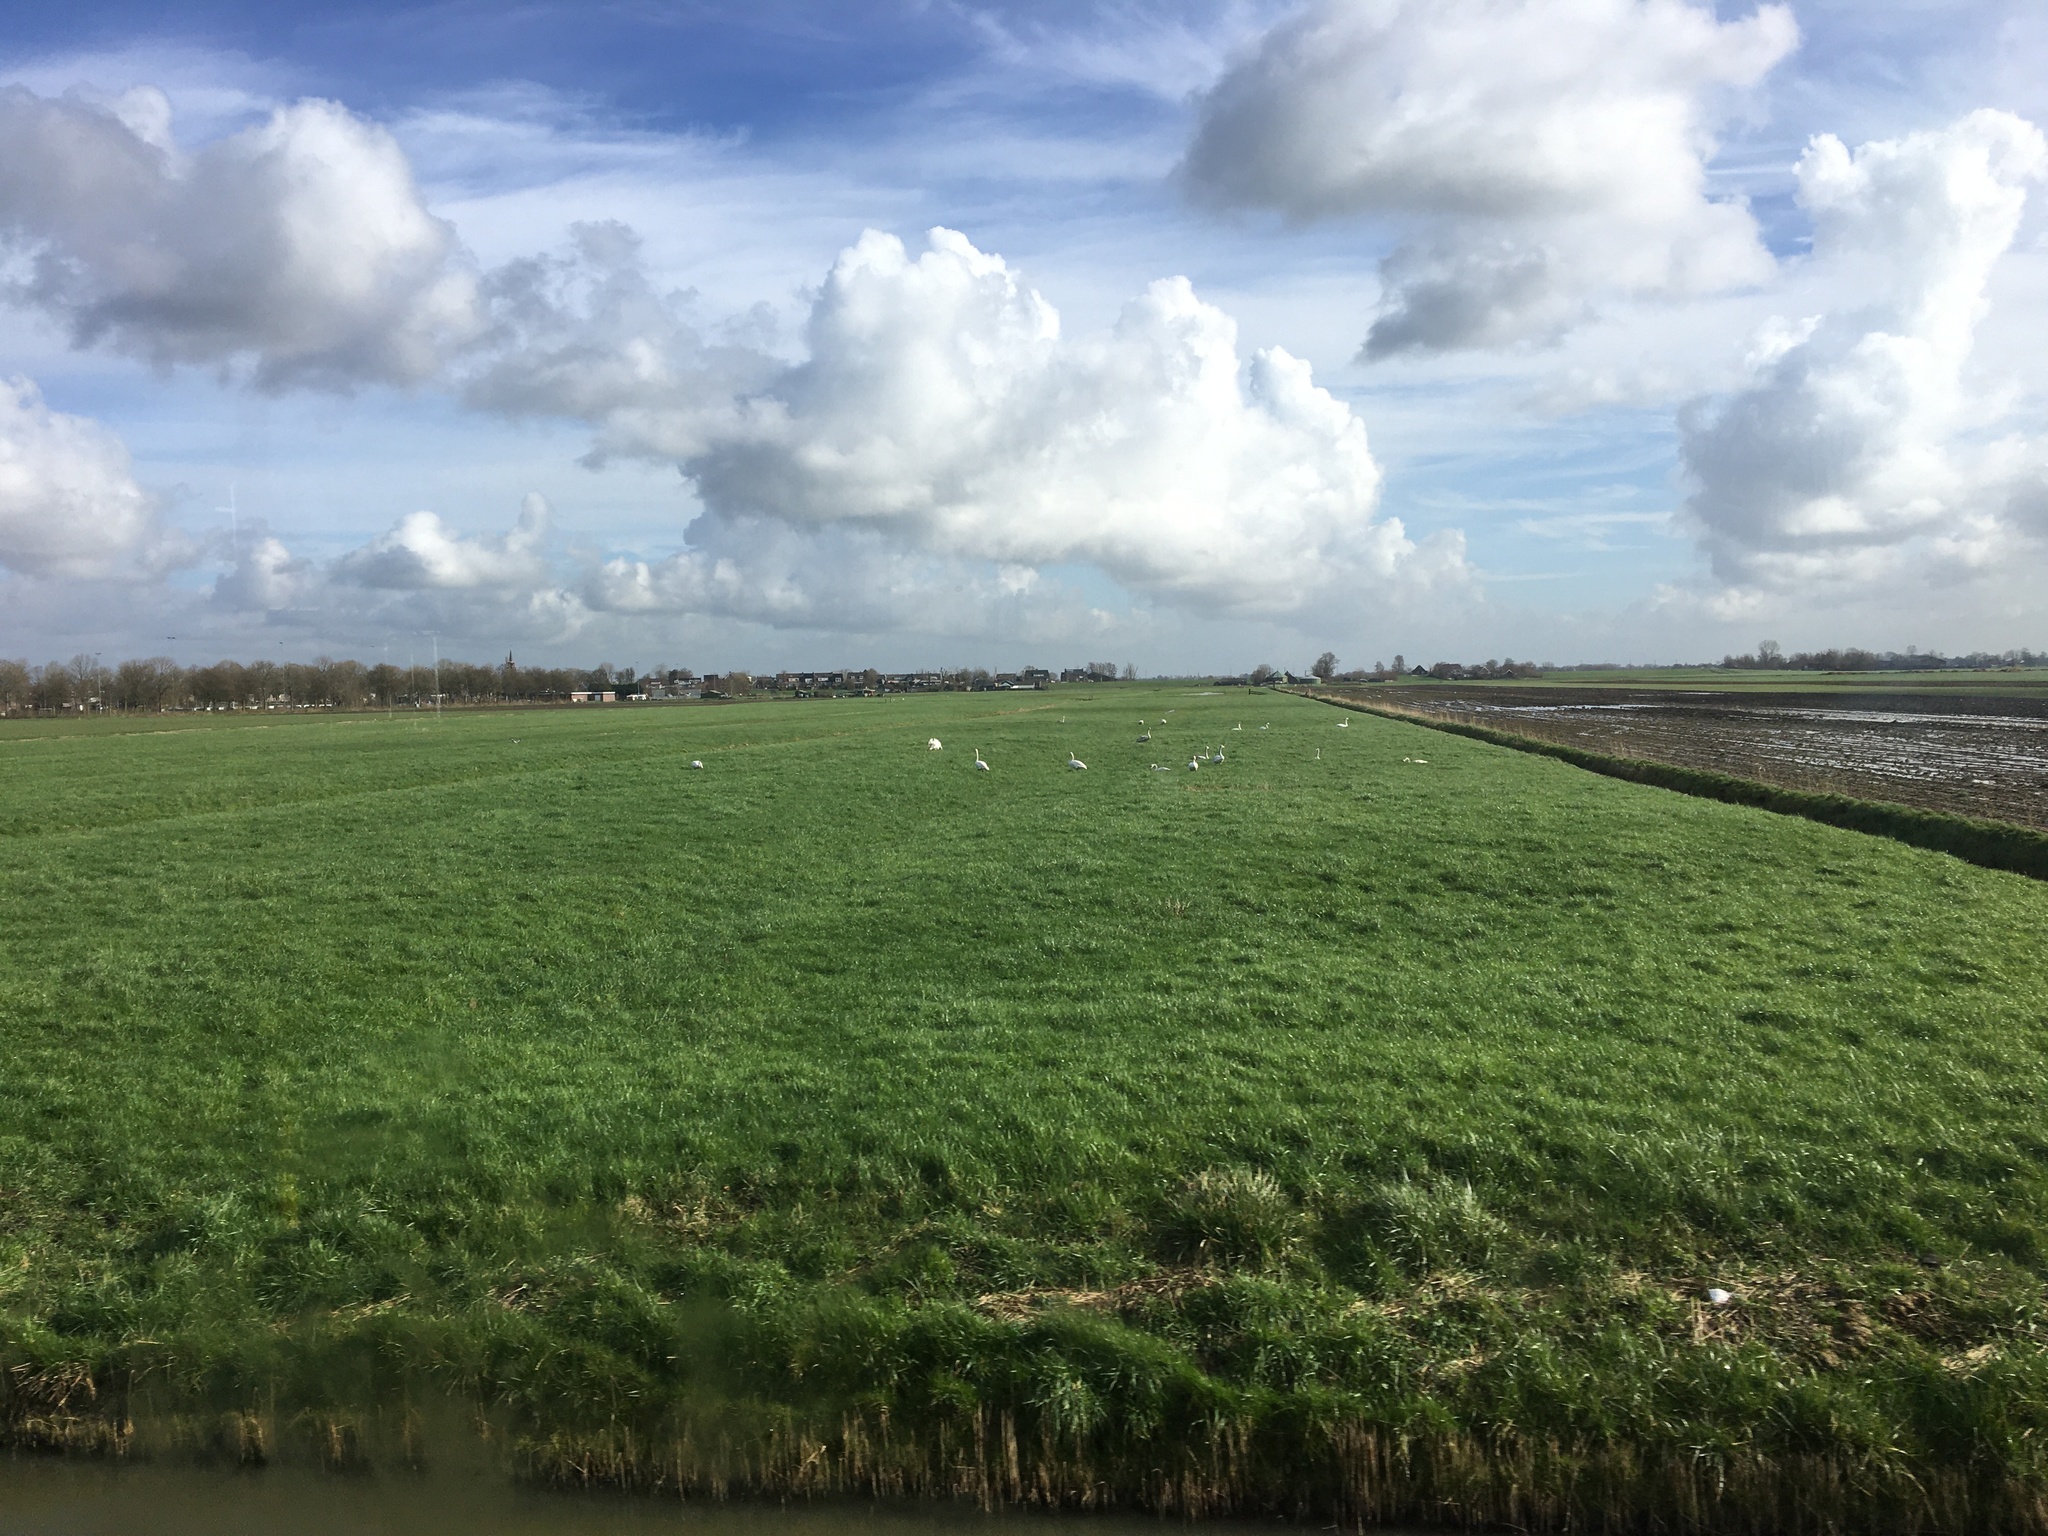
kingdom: Animalia
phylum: Chordata
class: Aves
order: Anseriformes
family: Anatidae
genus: Cygnus
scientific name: Cygnus olor
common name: Mute swan
